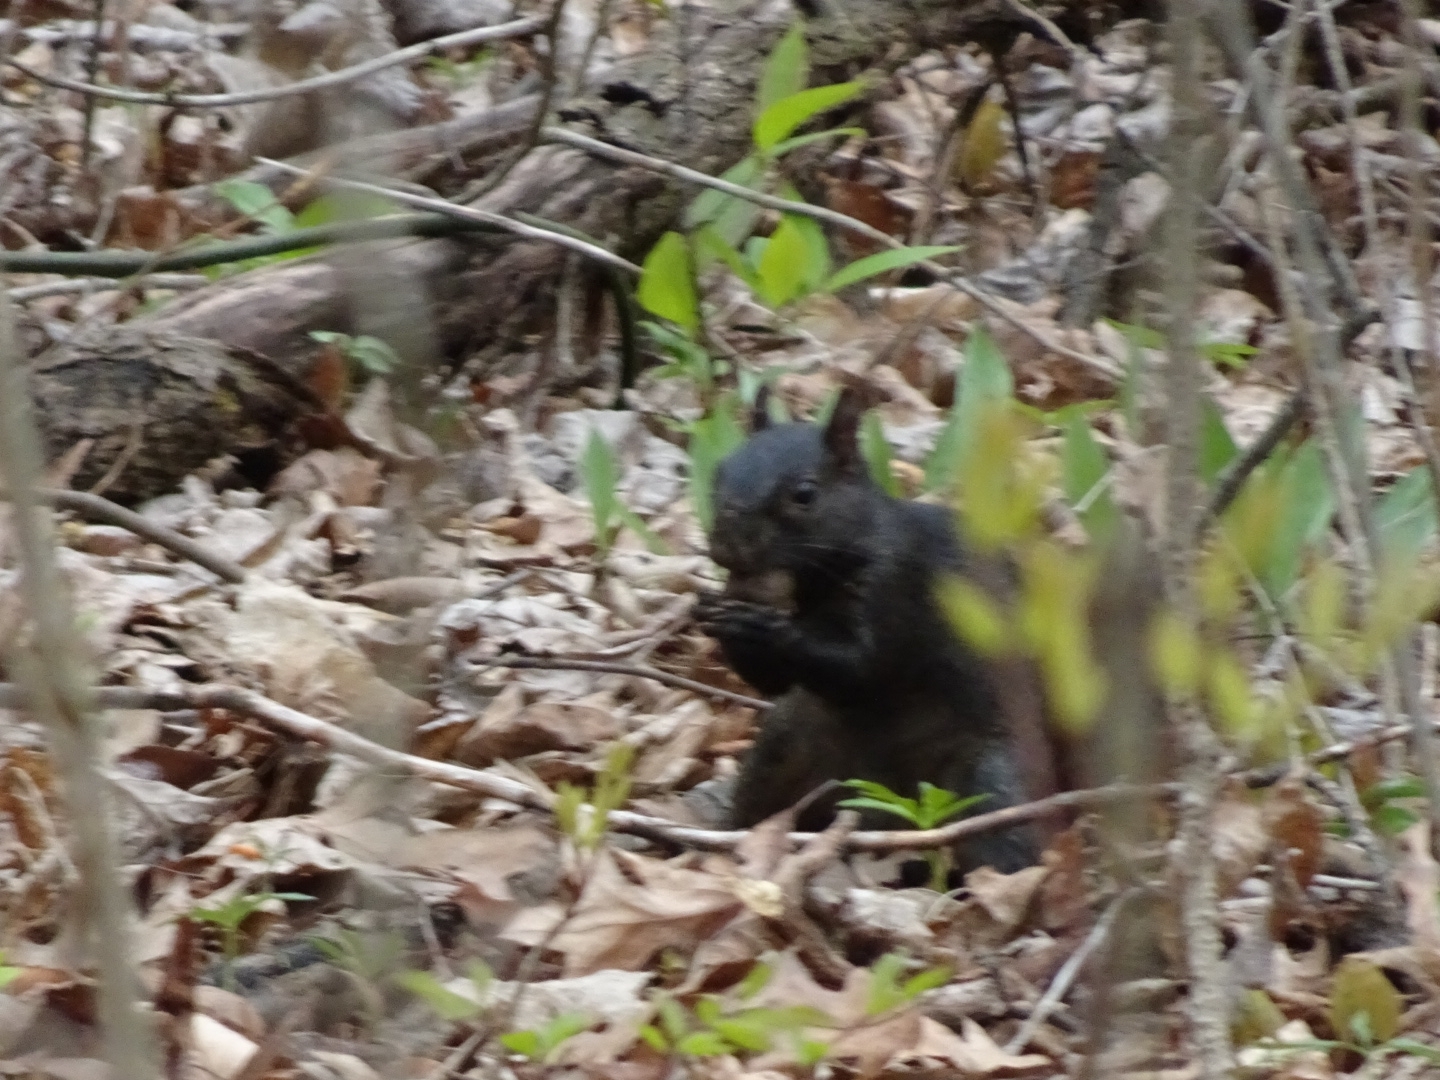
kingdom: Animalia
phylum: Chordata
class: Mammalia
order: Rodentia
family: Sciuridae
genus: Sciurus
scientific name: Sciurus carolinensis
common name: Eastern gray squirrel
